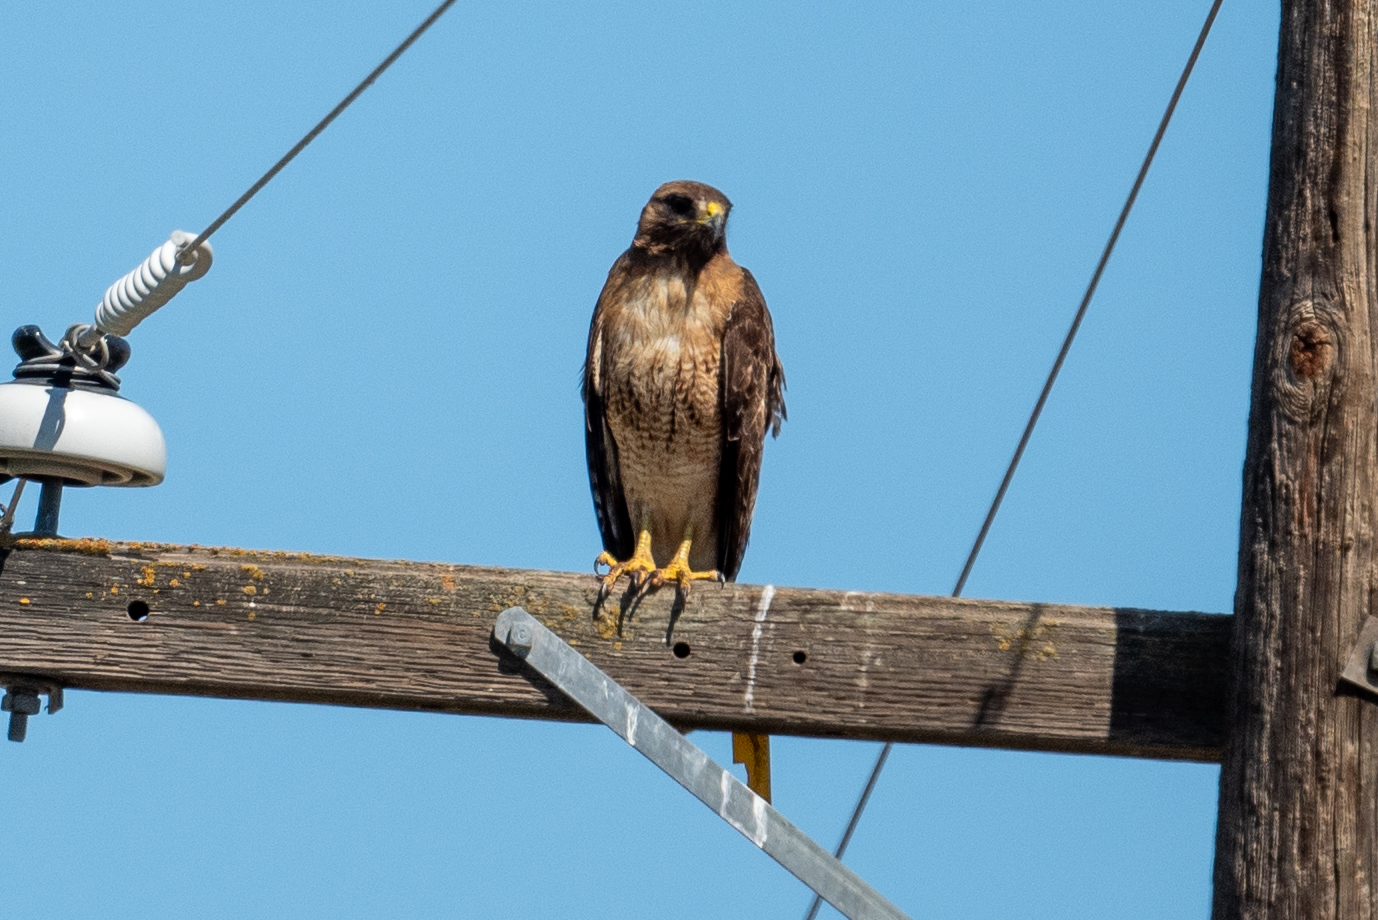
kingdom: Animalia
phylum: Chordata
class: Aves
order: Accipitriformes
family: Accipitridae
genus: Buteo
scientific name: Buteo jamaicensis
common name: Red-tailed hawk
